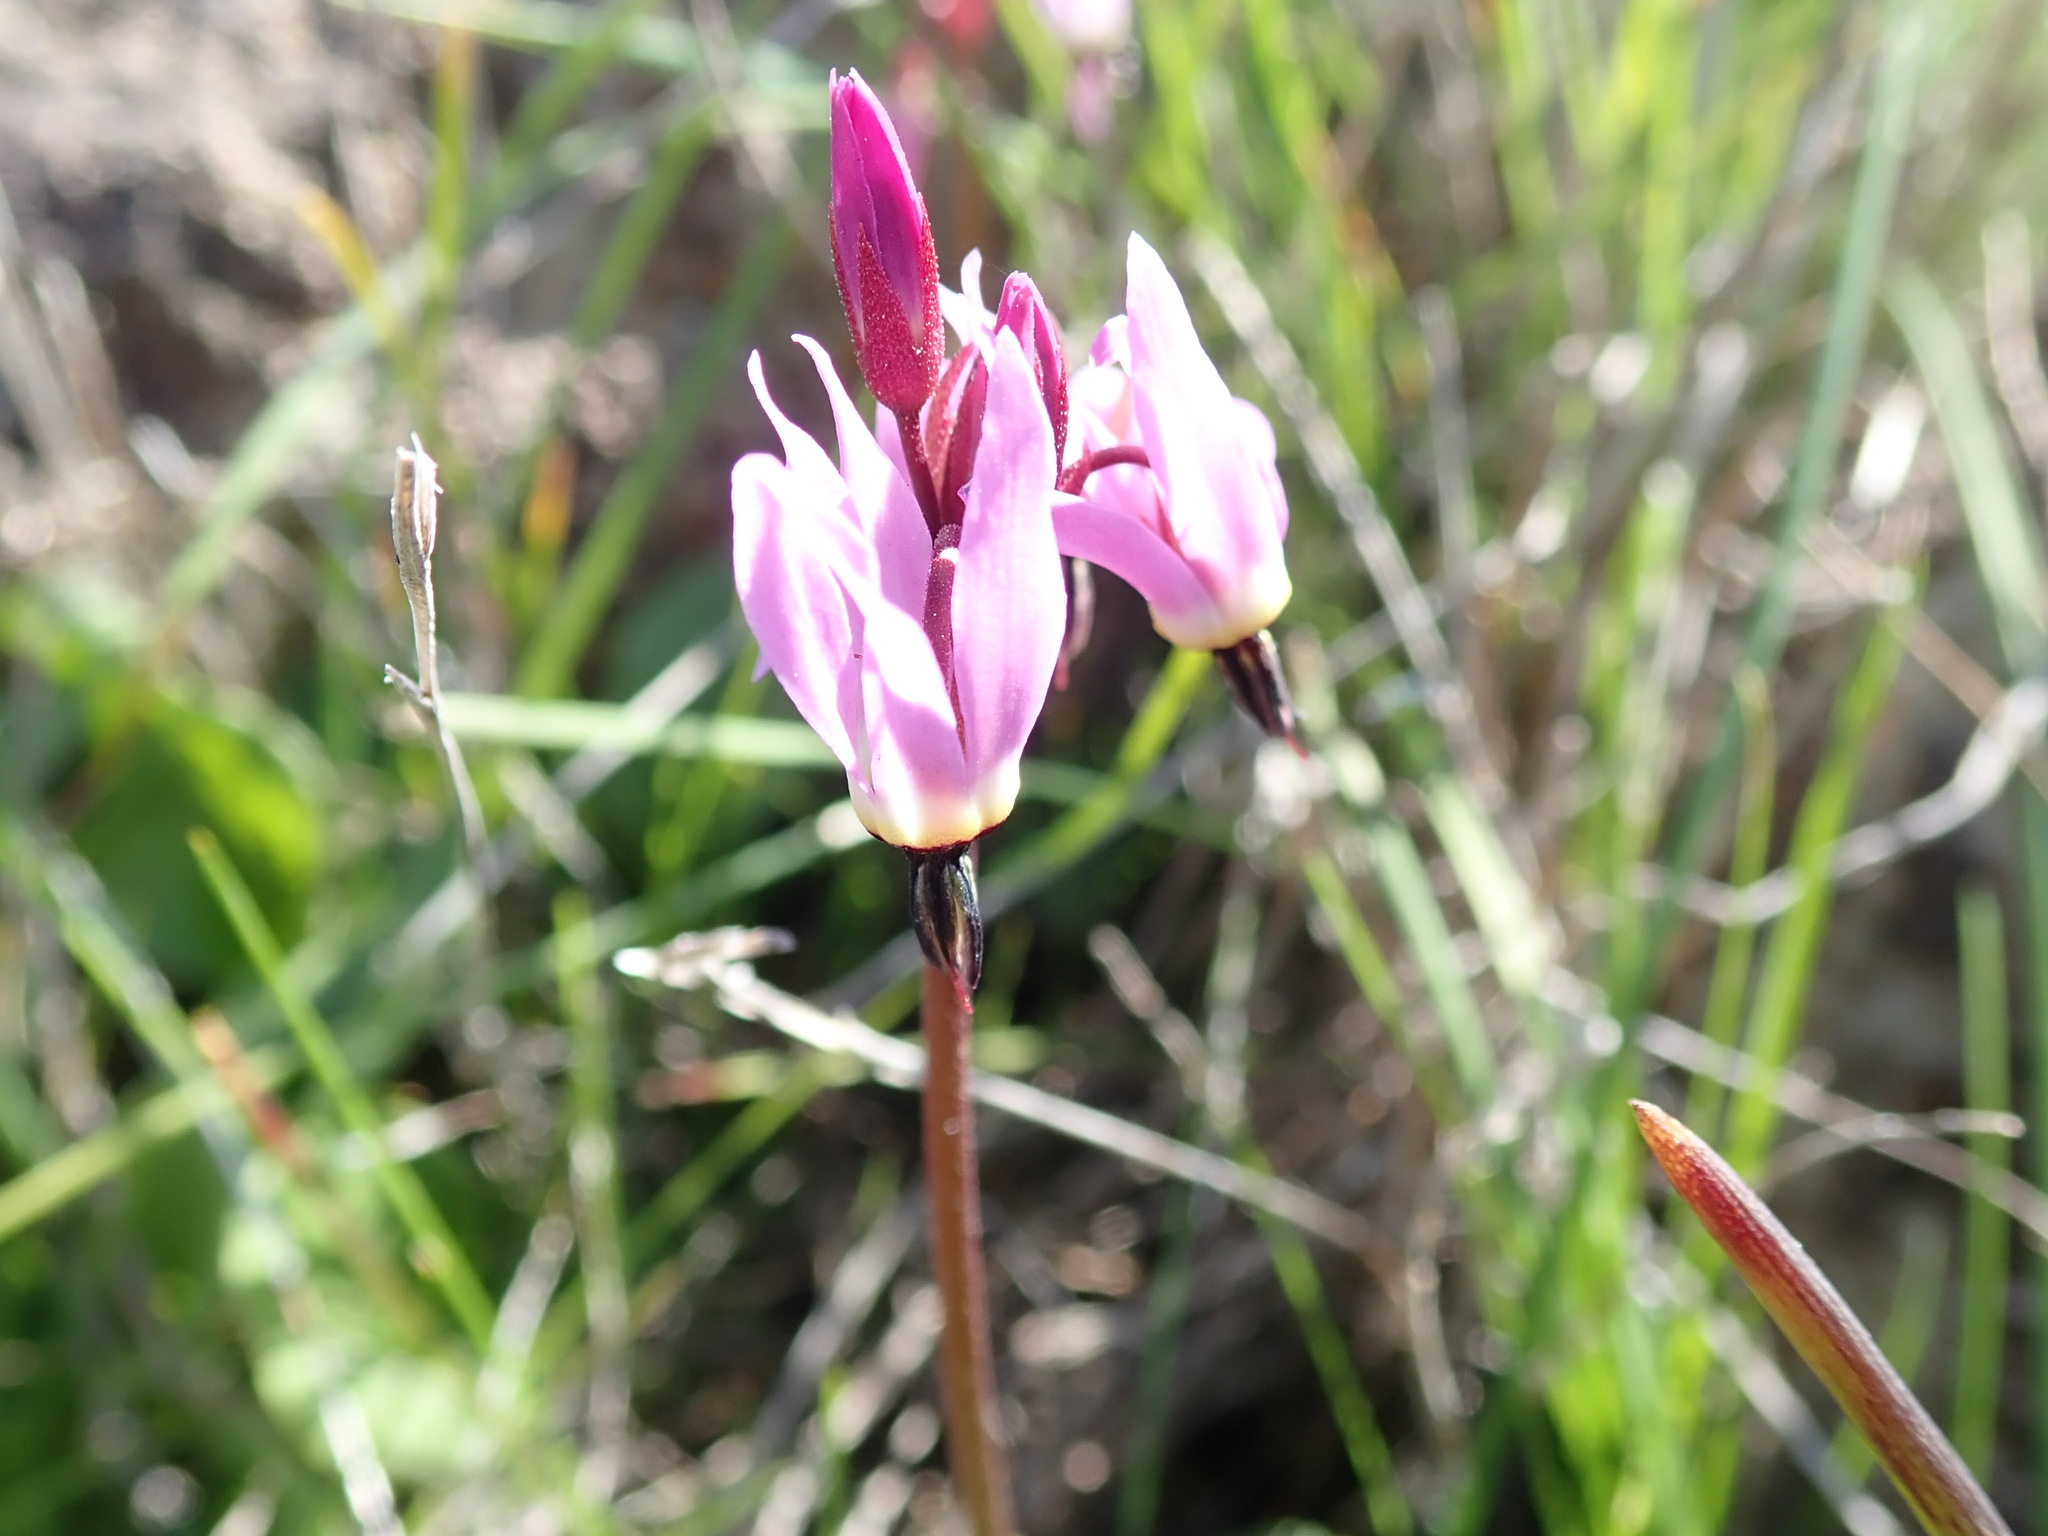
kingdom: Plantae
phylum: Tracheophyta
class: Magnoliopsida
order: Ericales
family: Primulaceae
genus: Dodecatheon
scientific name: Dodecatheon hendersonii
